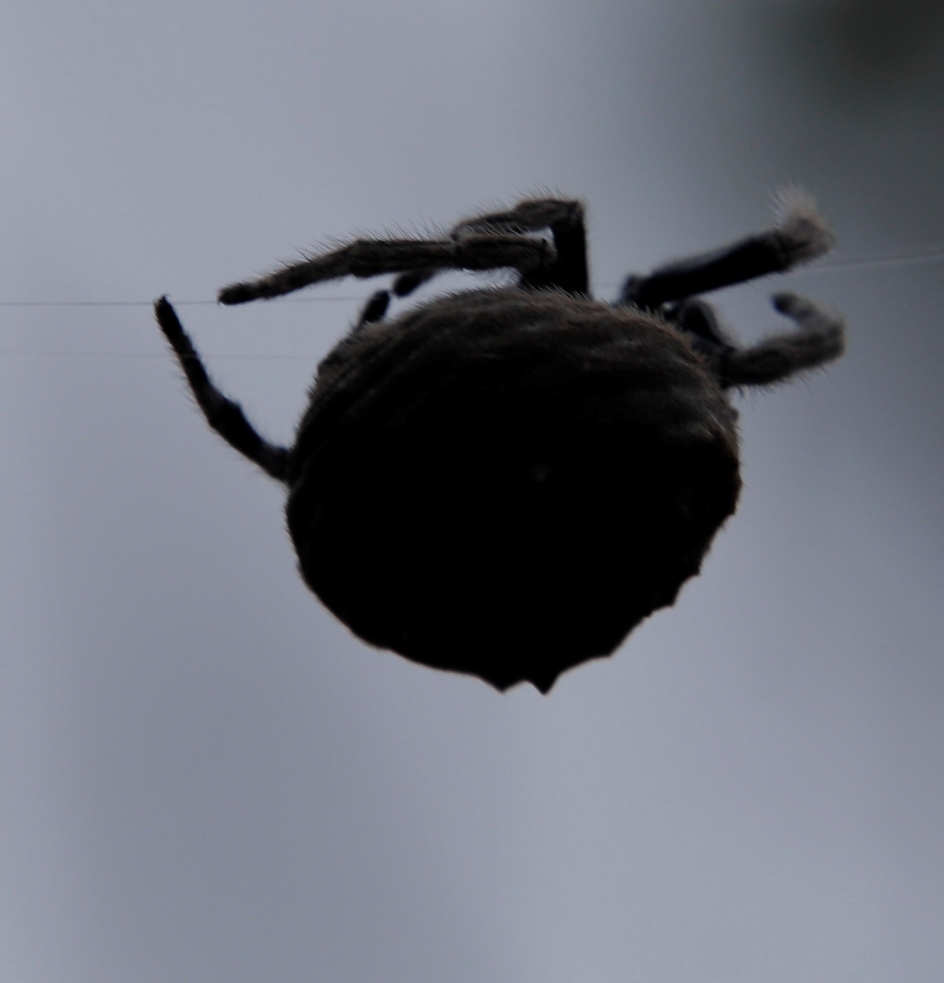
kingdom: Animalia
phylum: Arthropoda
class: Arachnida
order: Araneae
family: Araneidae
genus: Caerostris
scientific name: Caerostris sexcuspidata
